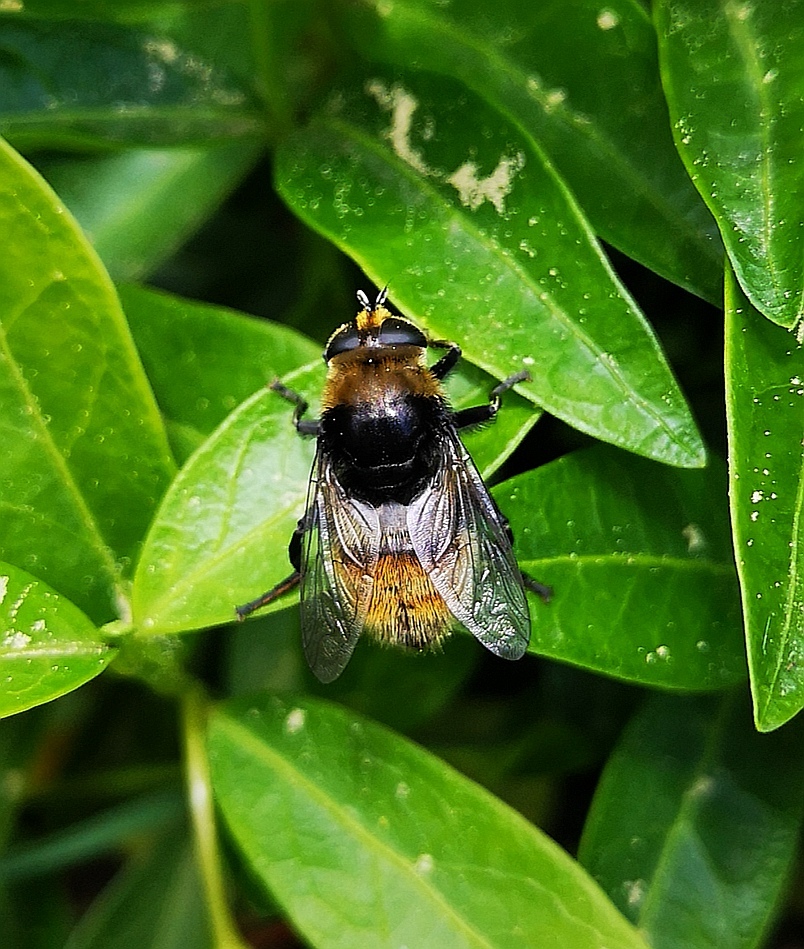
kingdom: Animalia
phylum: Arthropoda
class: Insecta
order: Diptera
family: Syrphidae
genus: Merodon
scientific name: Merodon equestris
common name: Greater bulb-fly
